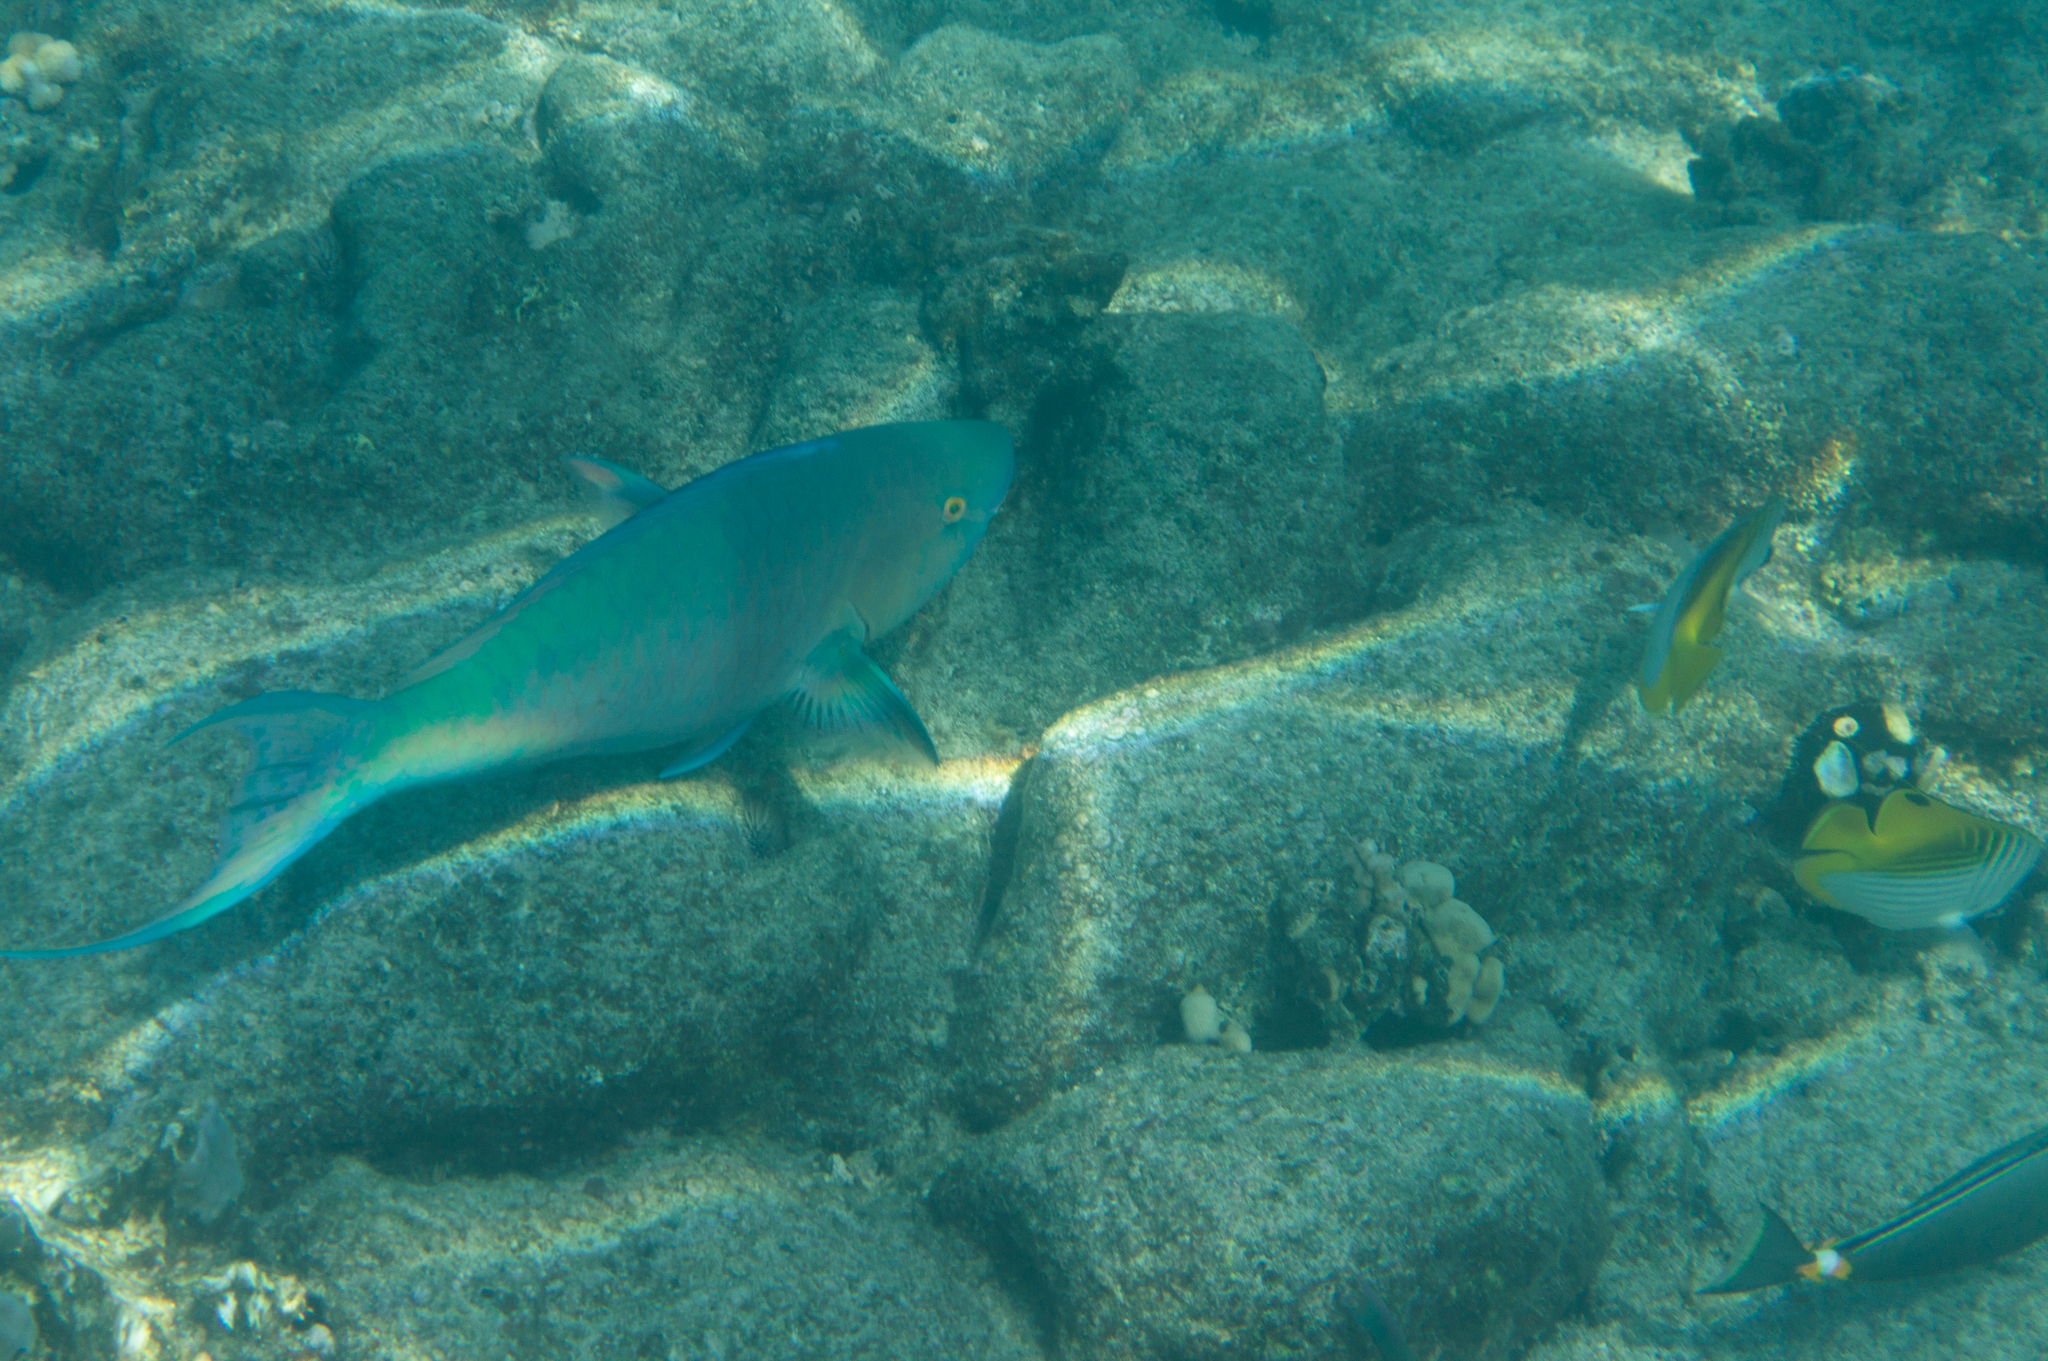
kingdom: Animalia
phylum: Chordata
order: Perciformes
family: Chaetodontidae
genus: Chaetodon
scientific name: Chaetodon auriga
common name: Threadfin butterflyfish
